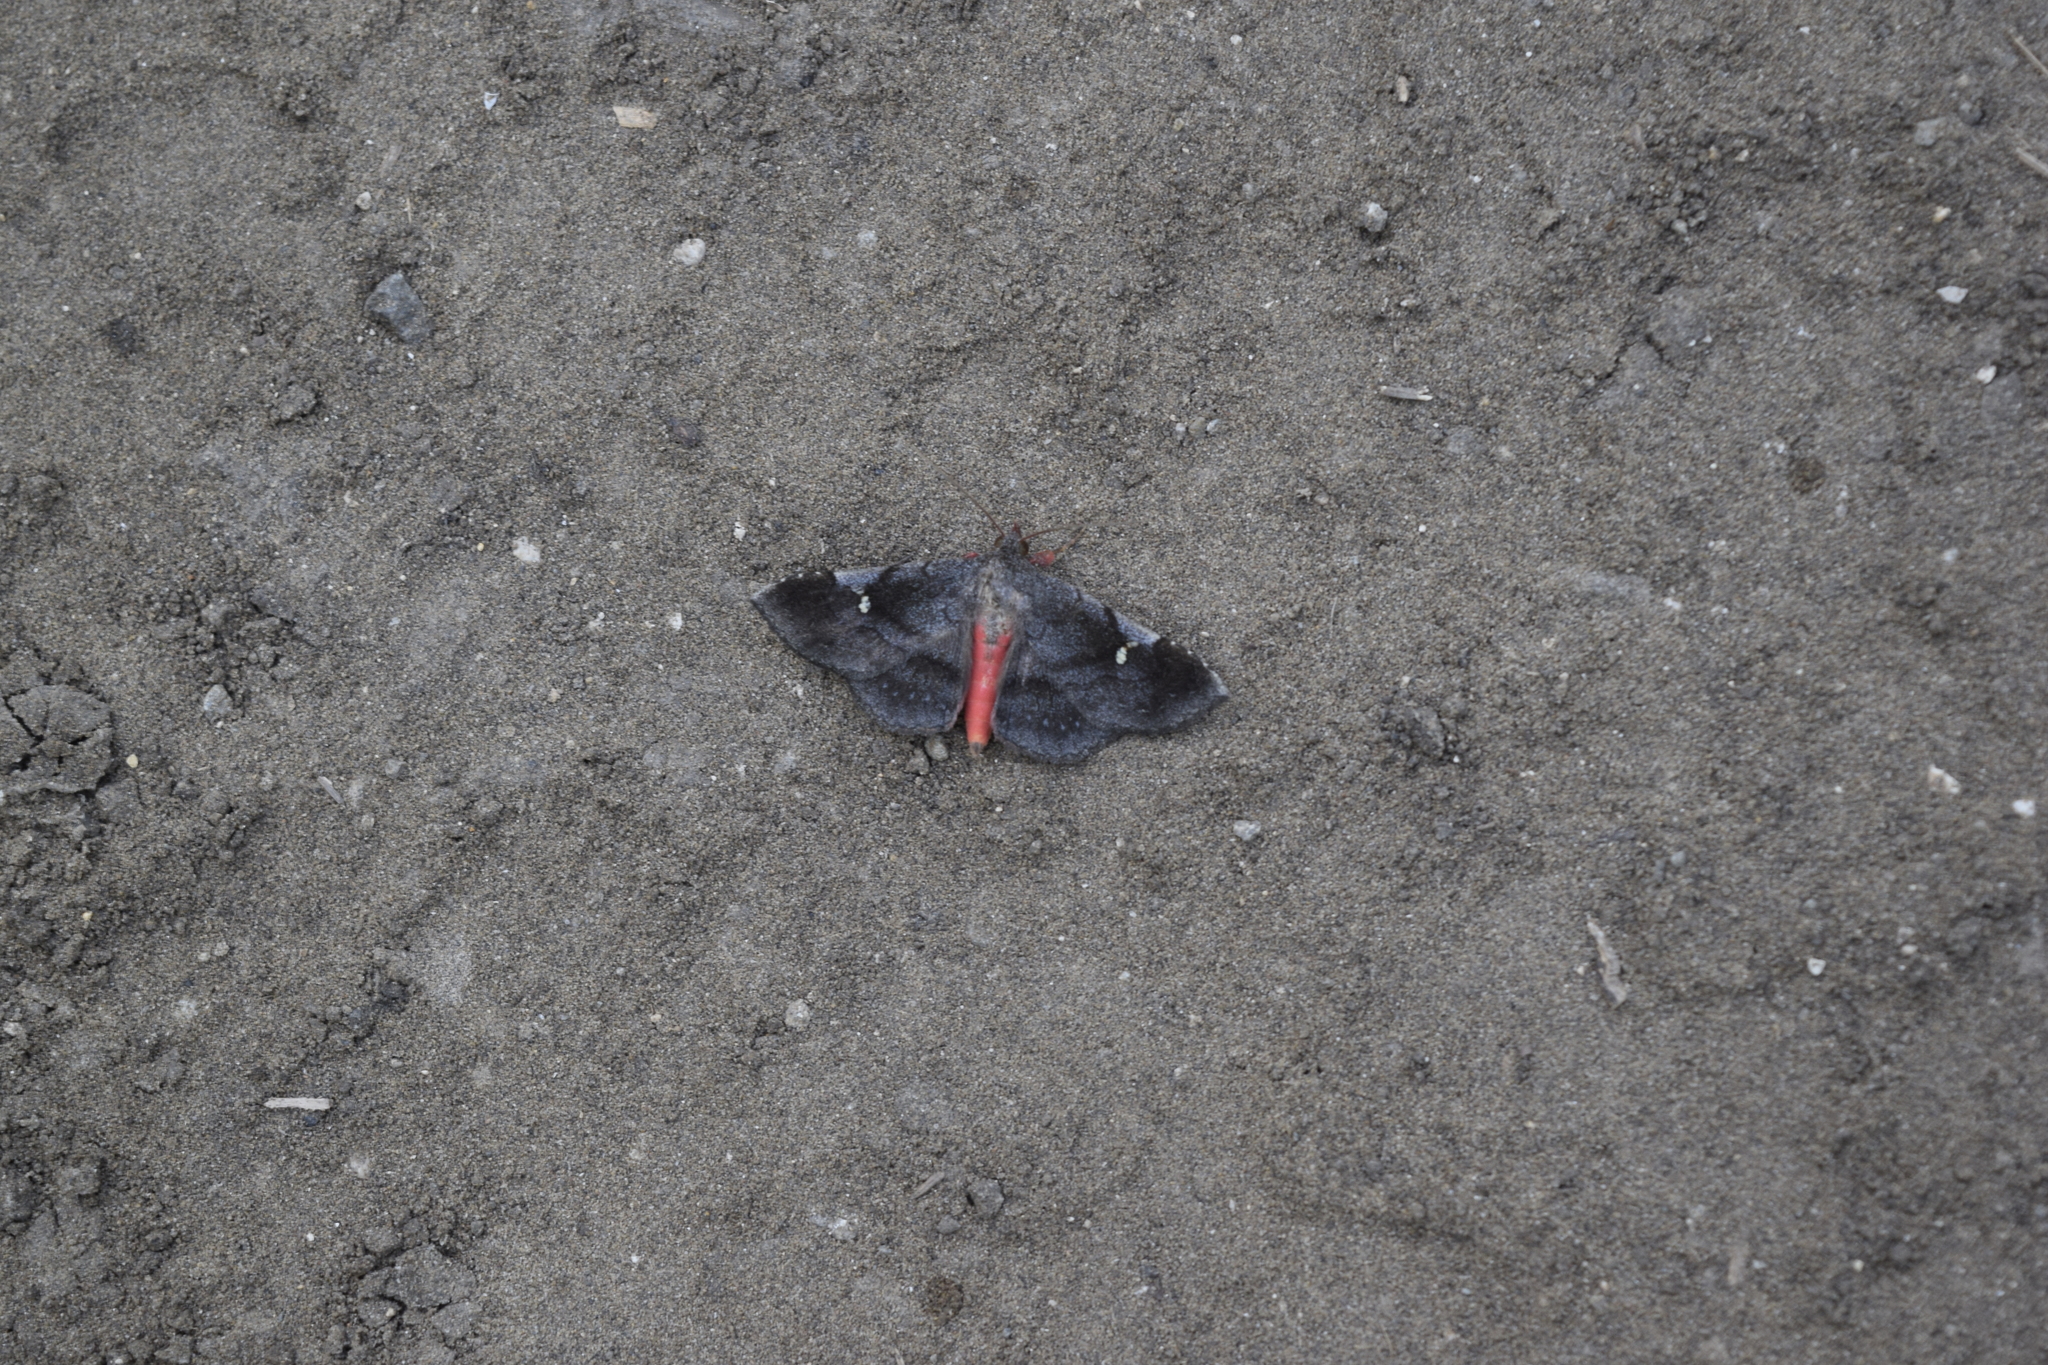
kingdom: Animalia
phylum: Arthropoda
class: Insecta
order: Lepidoptera
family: Erebidae
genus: Azeta
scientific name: Azeta melanea
